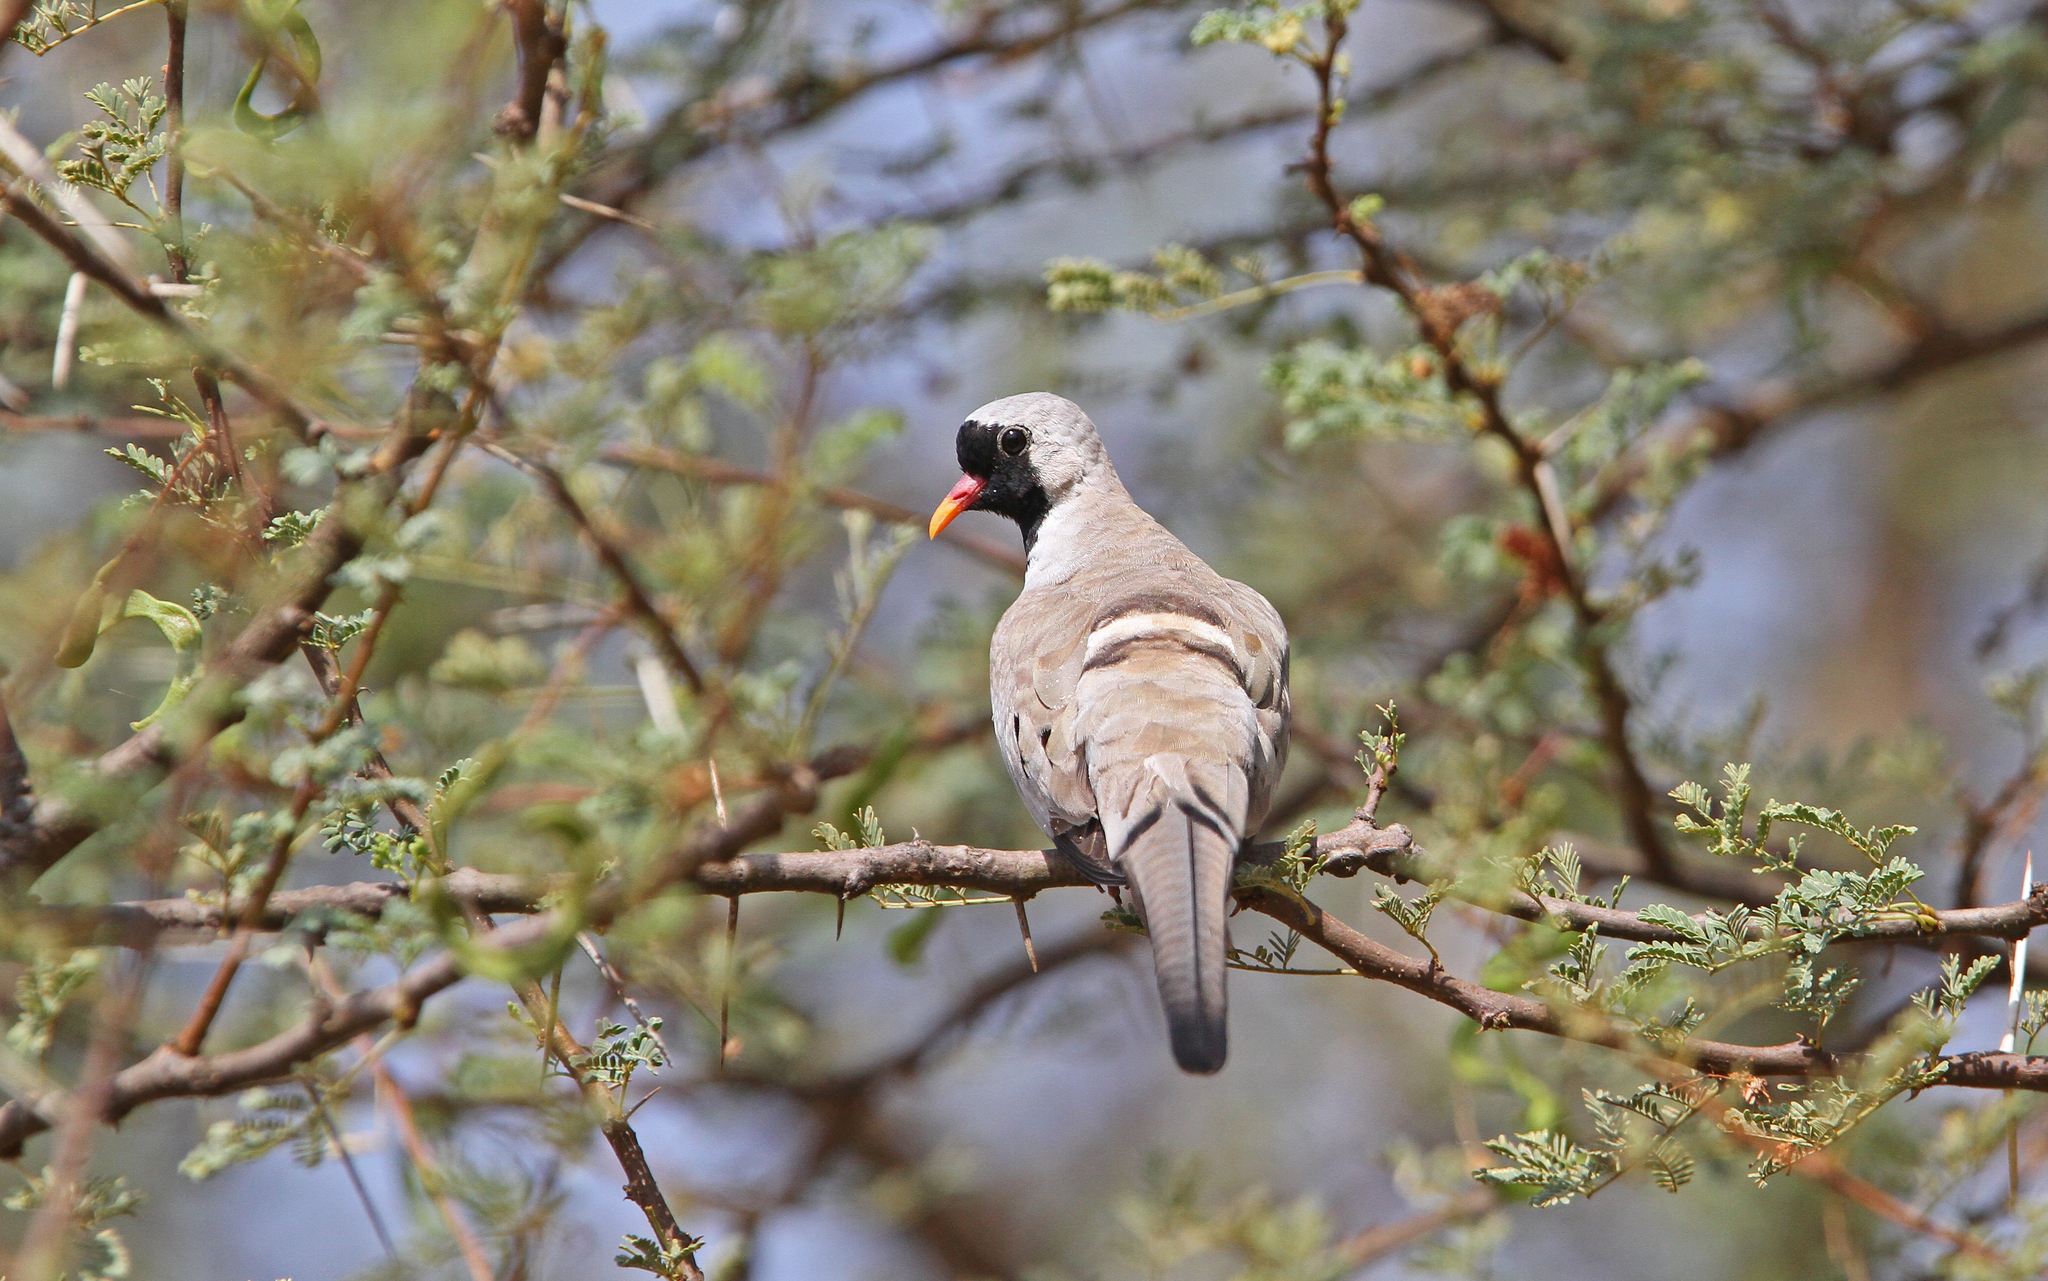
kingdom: Animalia
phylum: Chordata
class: Aves
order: Columbiformes
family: Columbidae
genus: Oena
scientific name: Oena capensis
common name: Namaqua dove
